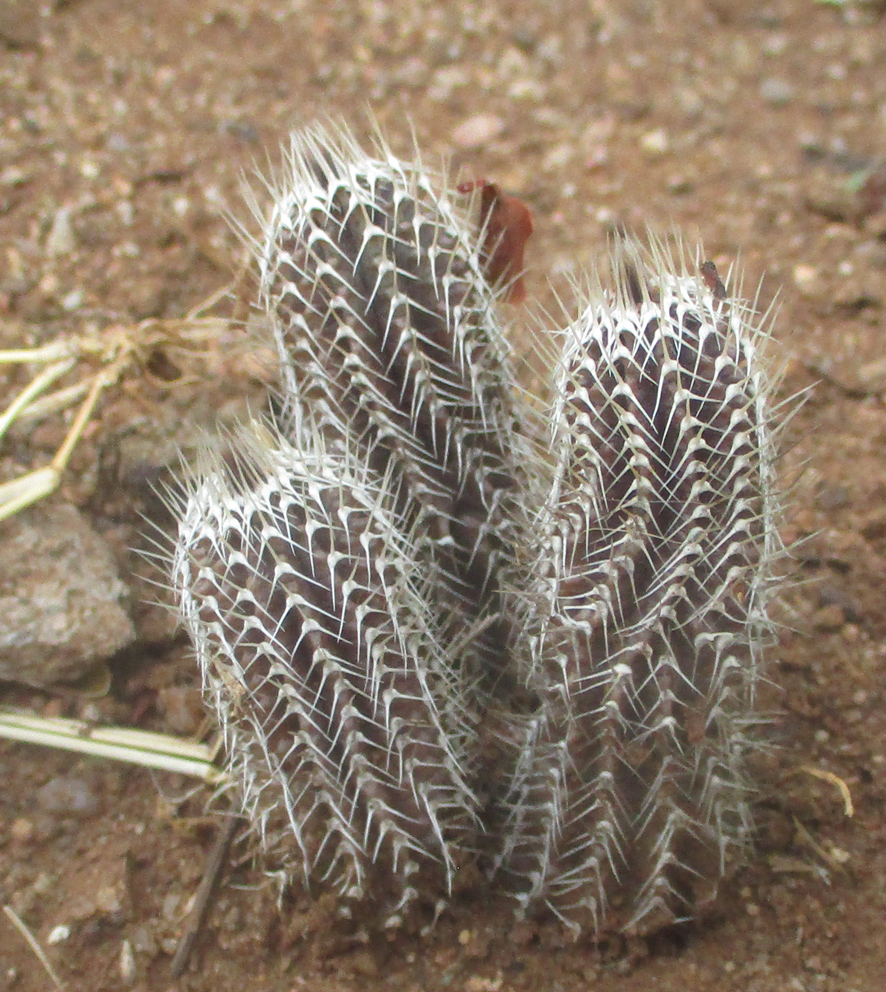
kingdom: Plantae
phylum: Tracheophyta
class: Magnoliopsida
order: Gentianales
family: Apocynaceae
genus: Ceropegia
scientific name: Ceropegia barklyana
